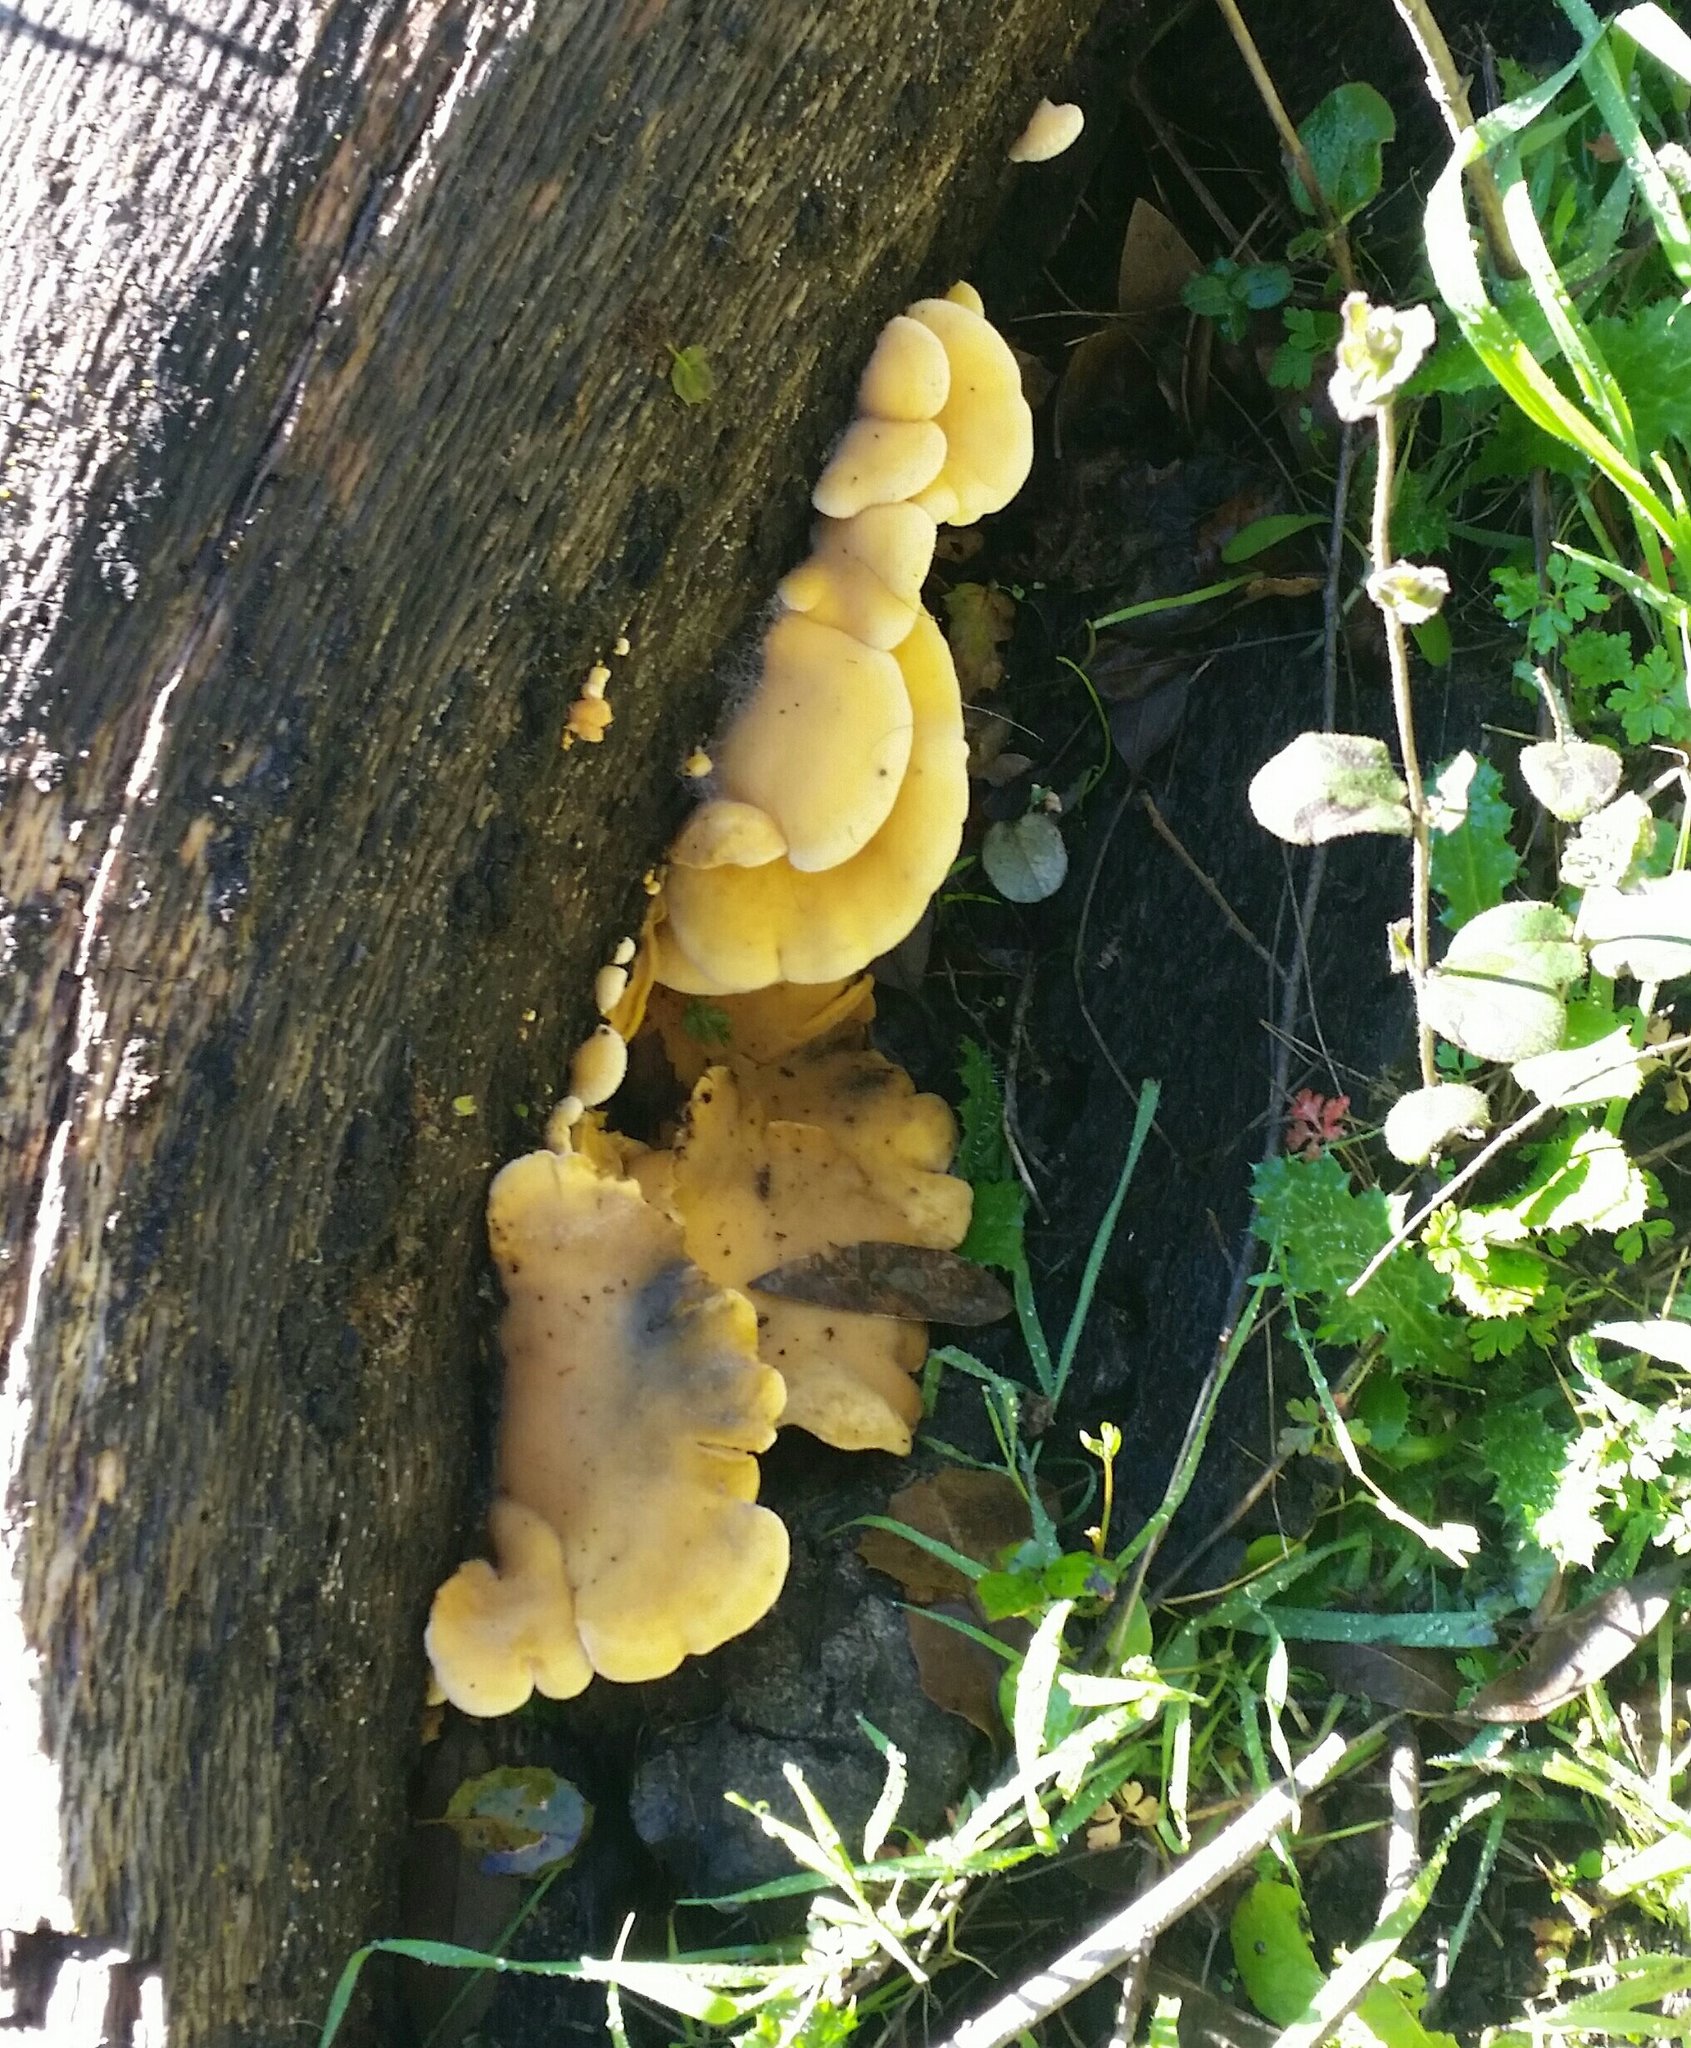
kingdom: Fungi
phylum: Basidiomycota
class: Agaricomycetes
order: Agaricales
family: Phyllotopsidaceae
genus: Phyllotopsis
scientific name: Phyllotopsis nidulans
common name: Orange mock oyster
